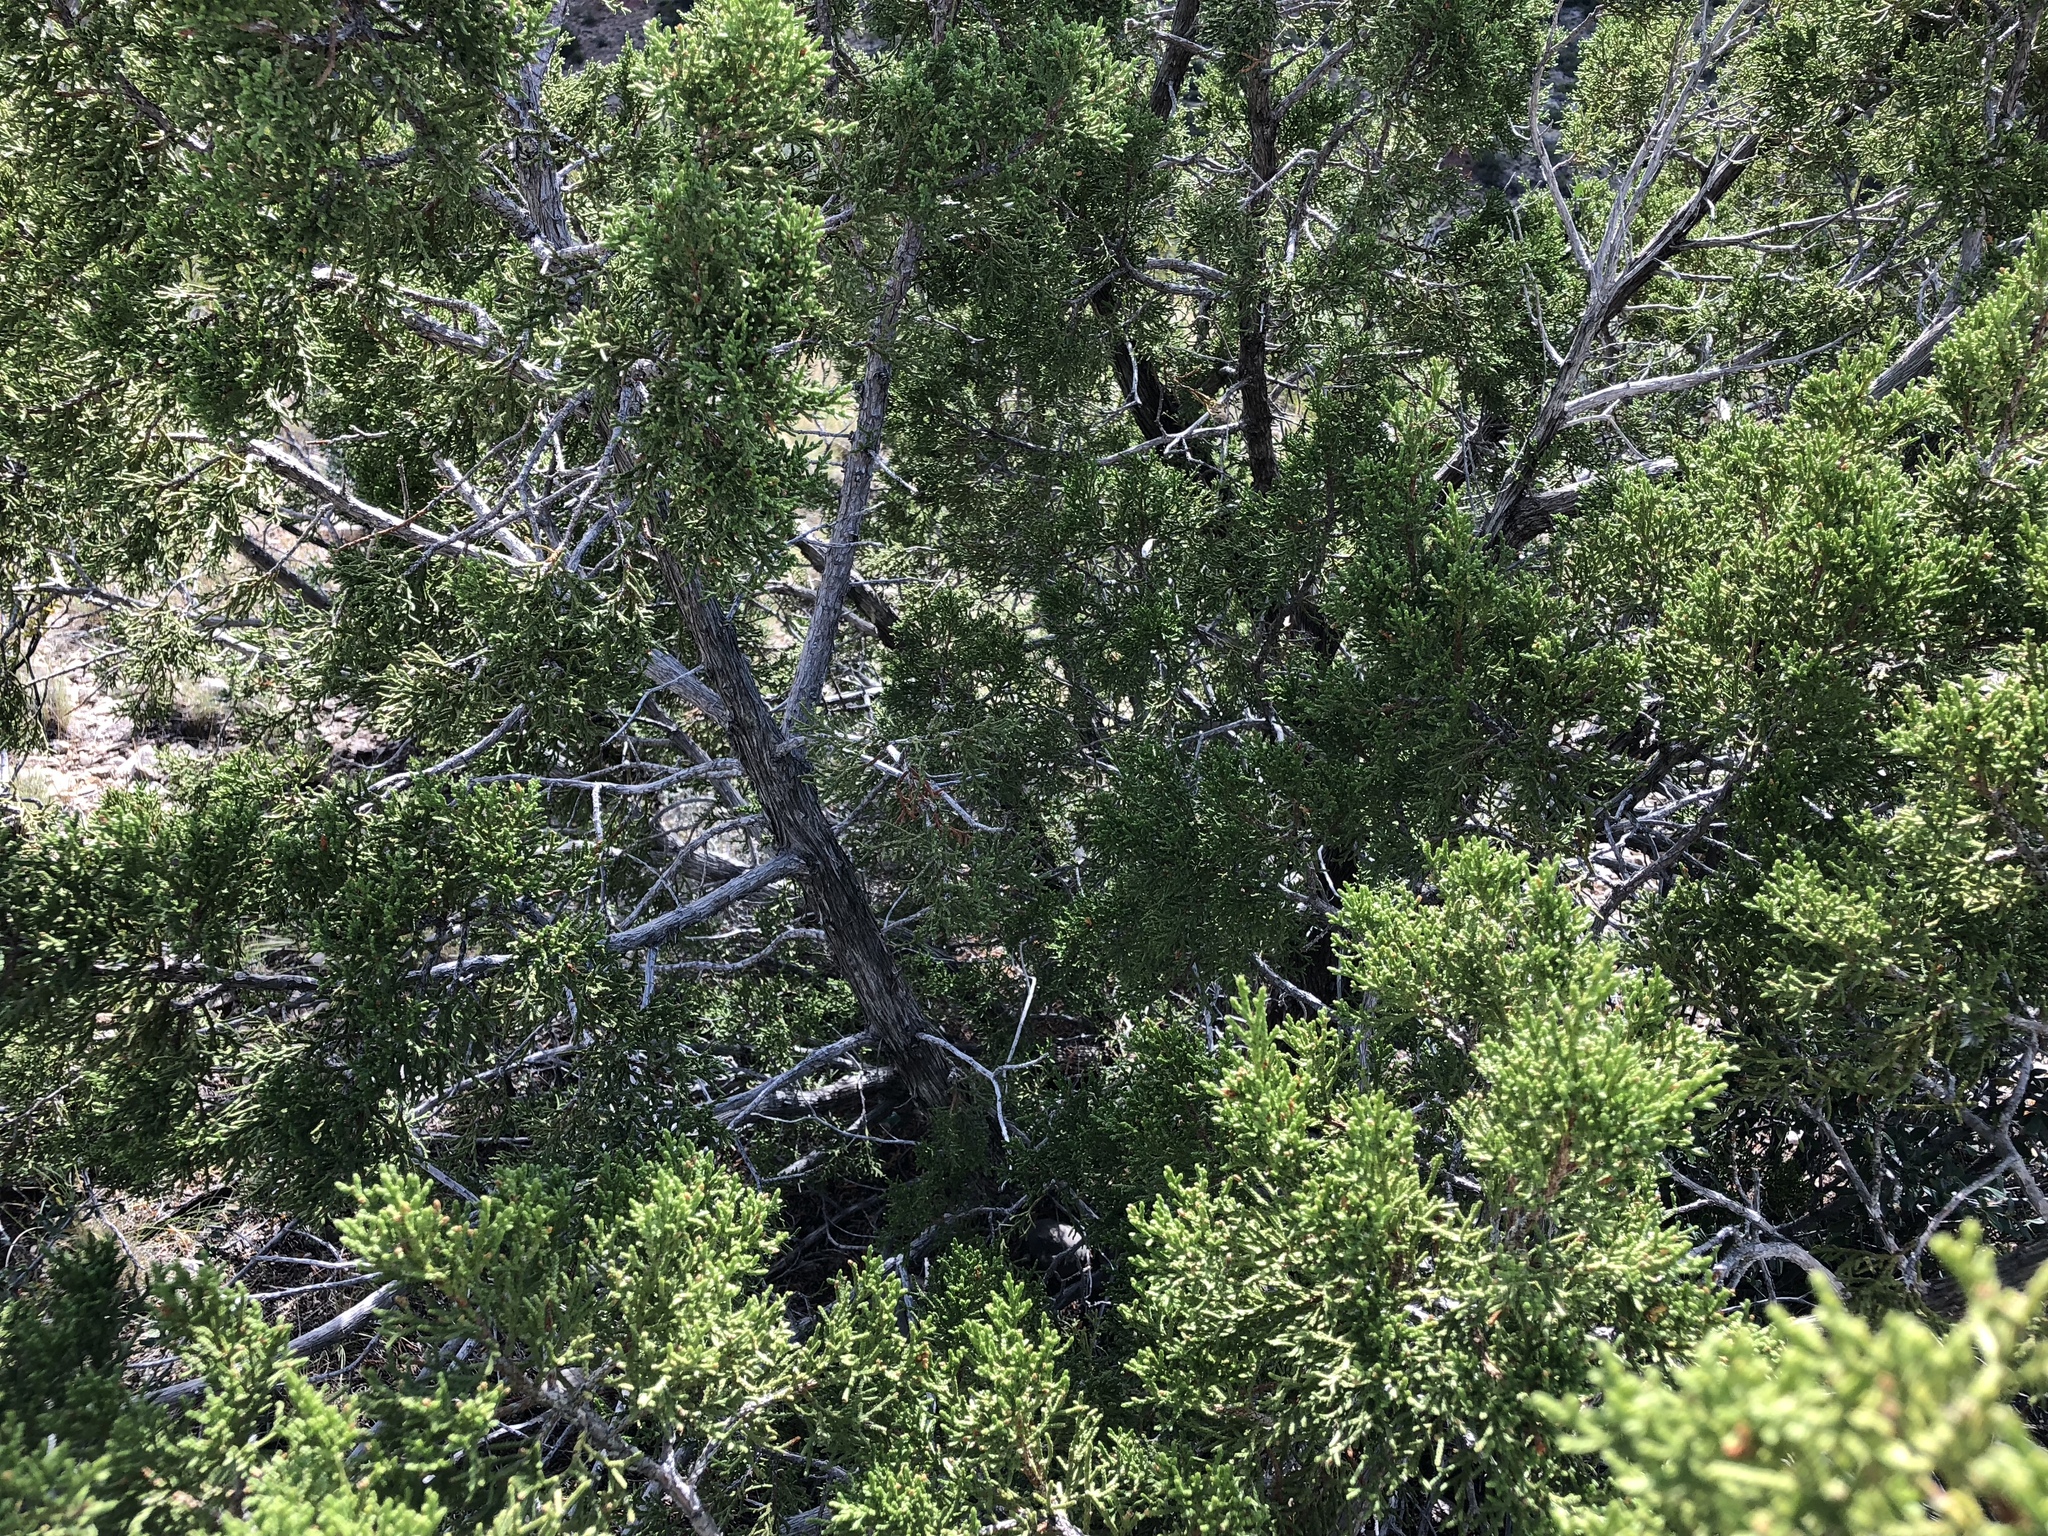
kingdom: Plantae
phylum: Tracheophyta
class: Pinopsida
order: Pinales
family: Cupressaceae
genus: Juniperus
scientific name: Juniperus monosperma
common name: One-seed juniper
